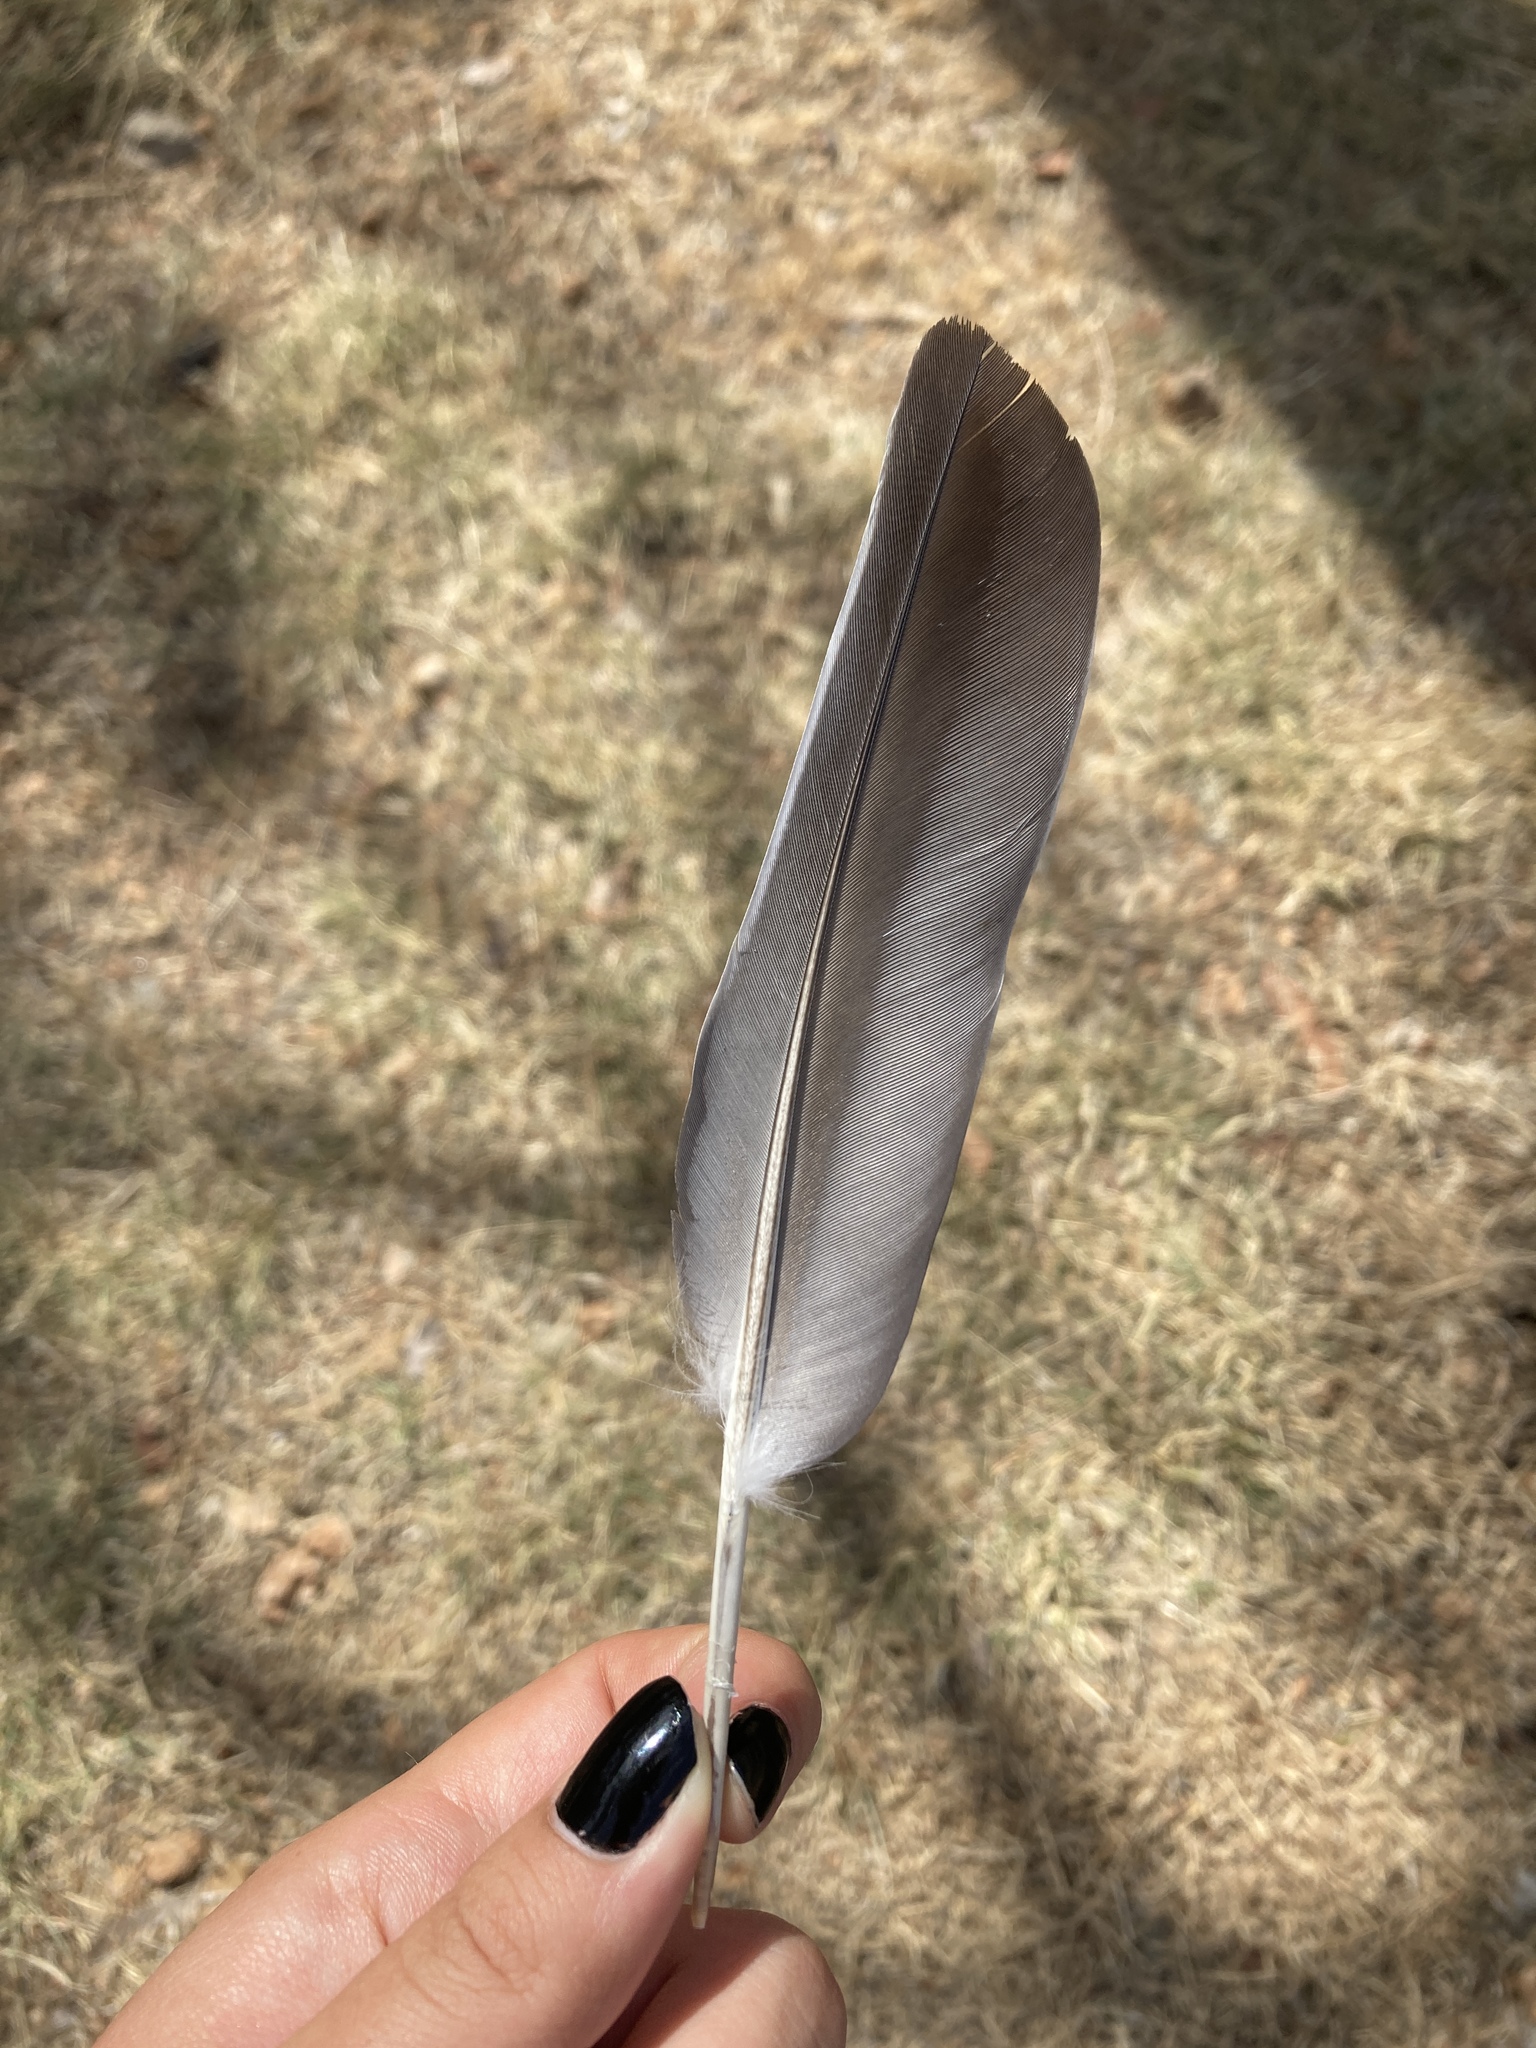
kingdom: Animalia
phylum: Chordata
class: Aves
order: Columbiformes
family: Columbidae
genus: Columba
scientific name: Columba palumbus
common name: Common wood pigeon
